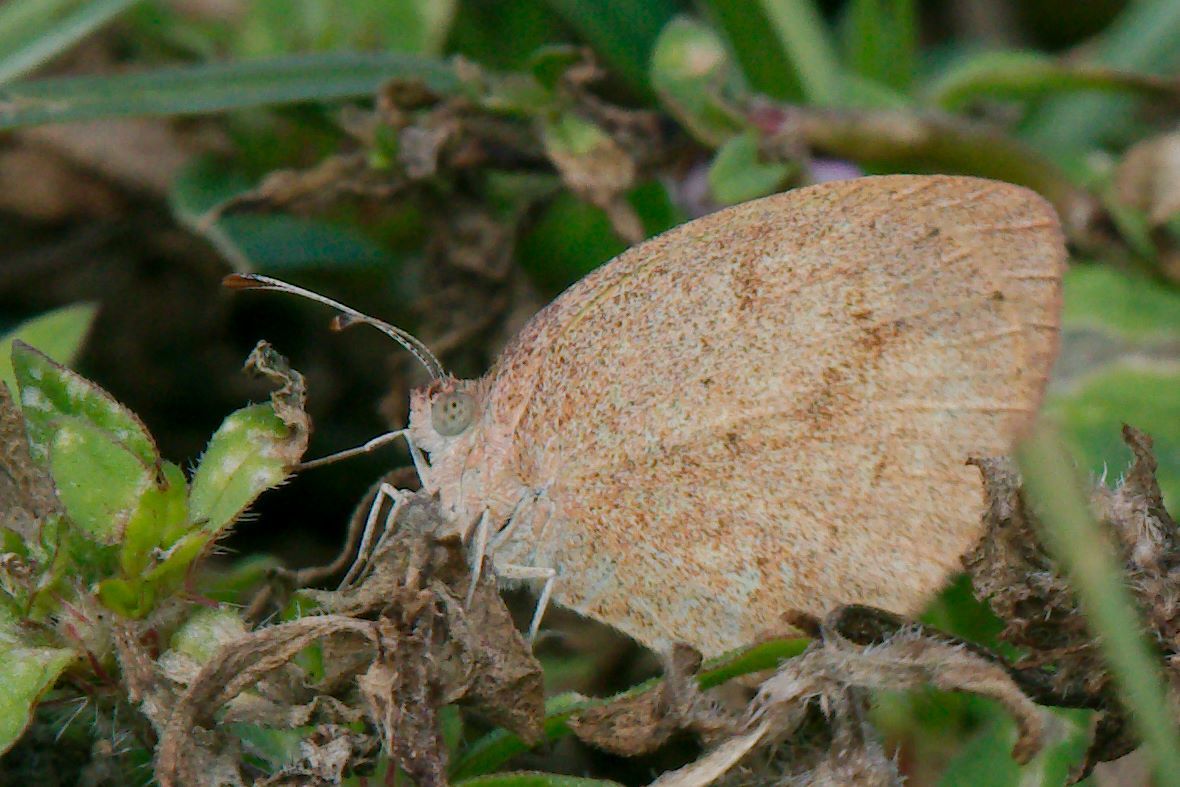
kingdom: Animalia
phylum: Arthropoda
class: Insecta
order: Lepidoptera
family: Pieridae
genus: Eurema
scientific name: Eurema daira
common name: Barred sulphur
